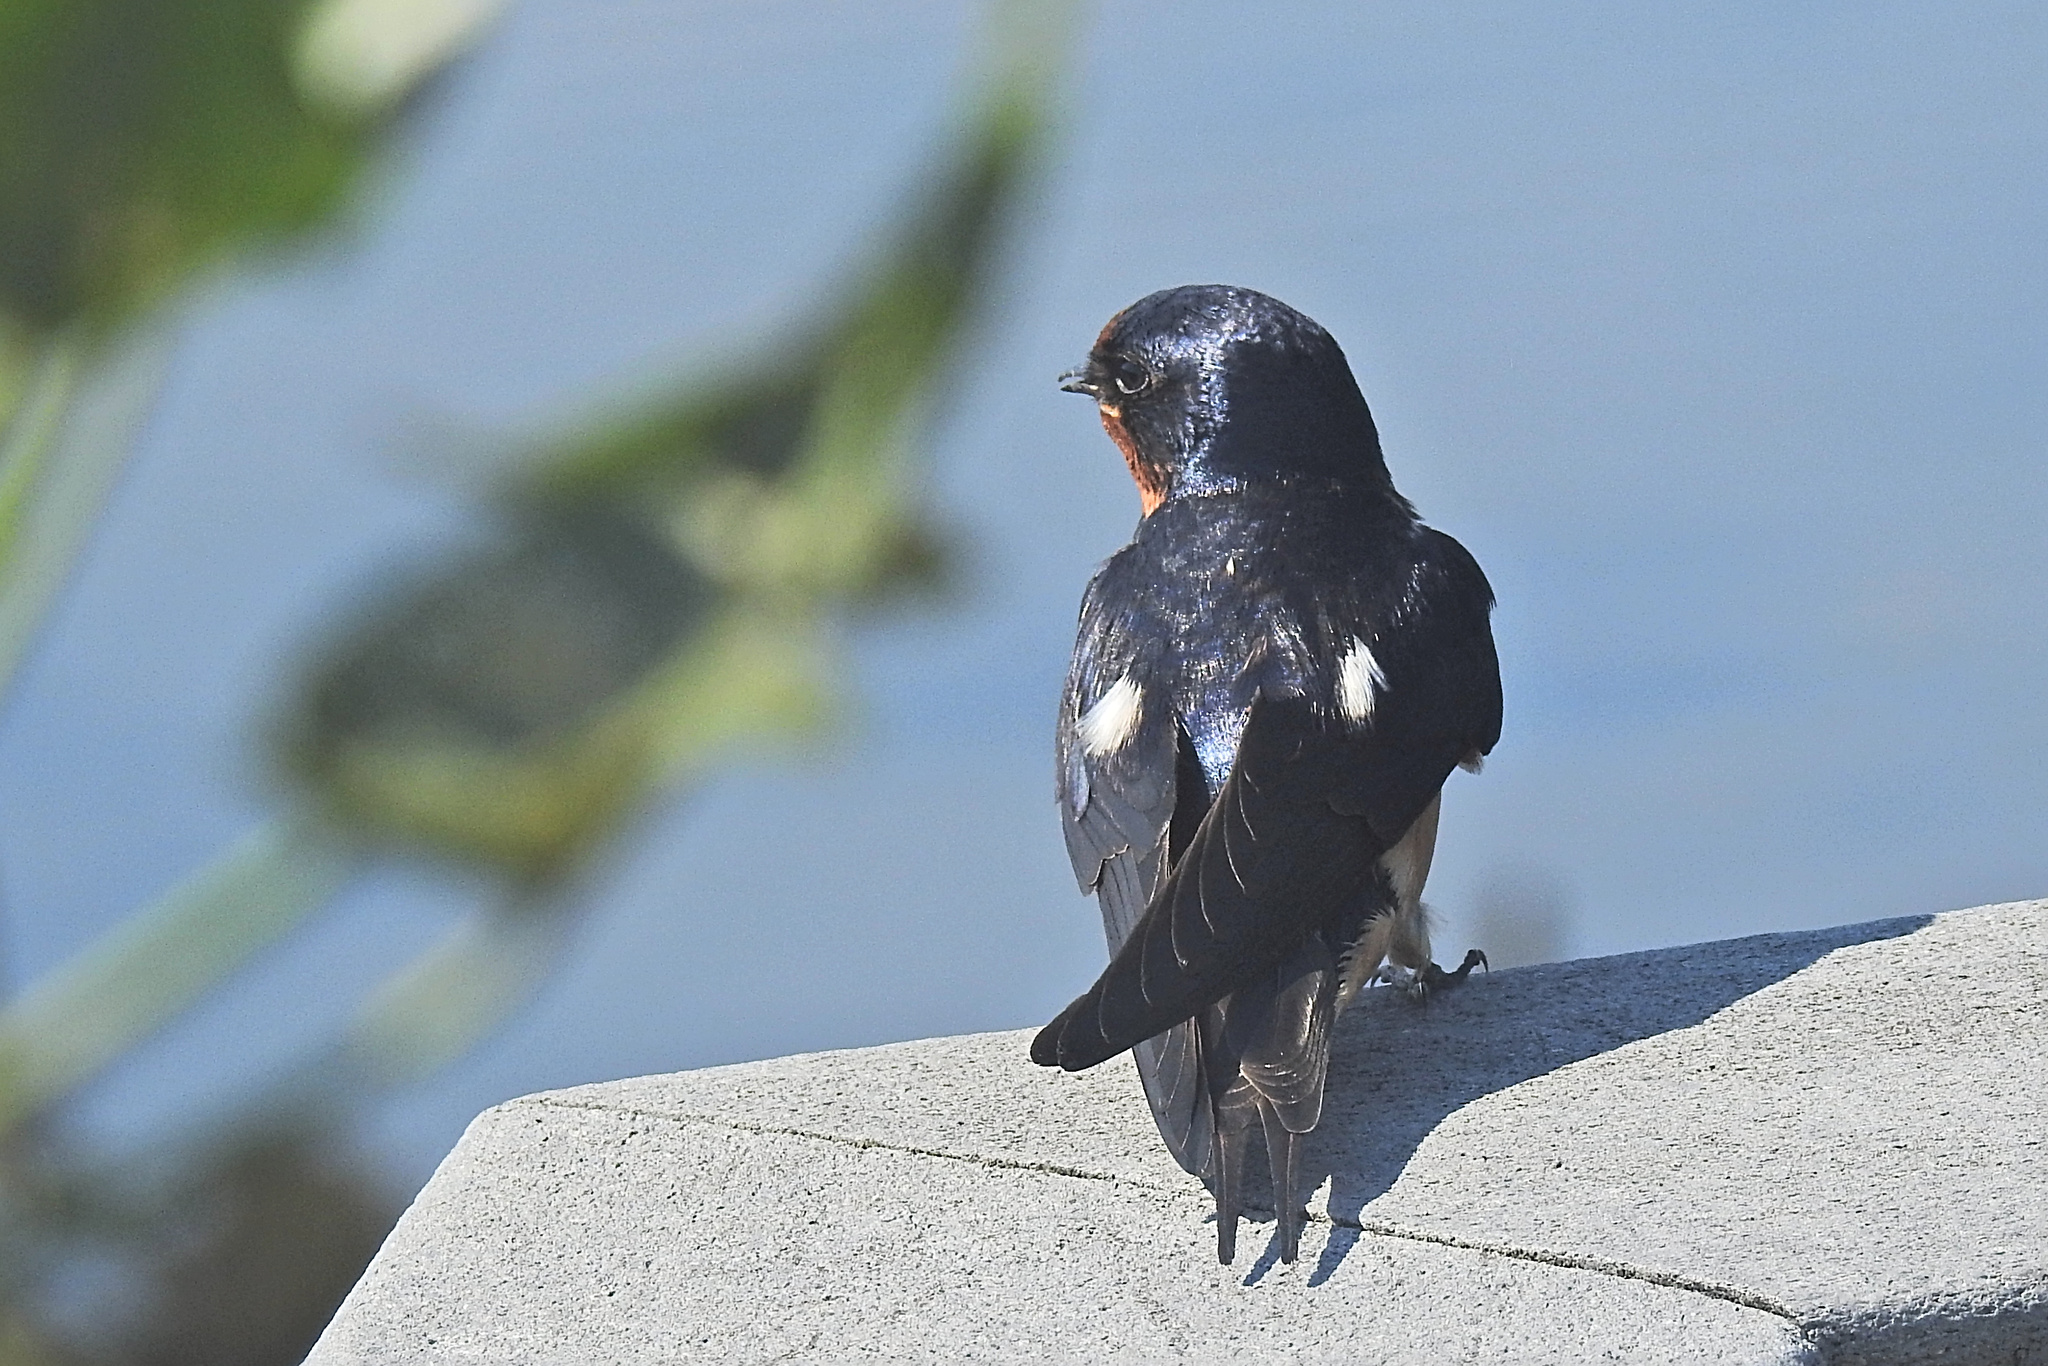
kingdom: Animalia
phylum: Chordata
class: Aves
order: Passeriformes
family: Hirundinidae
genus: Hirundo
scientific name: Hirundo rustica
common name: Barn swallow
